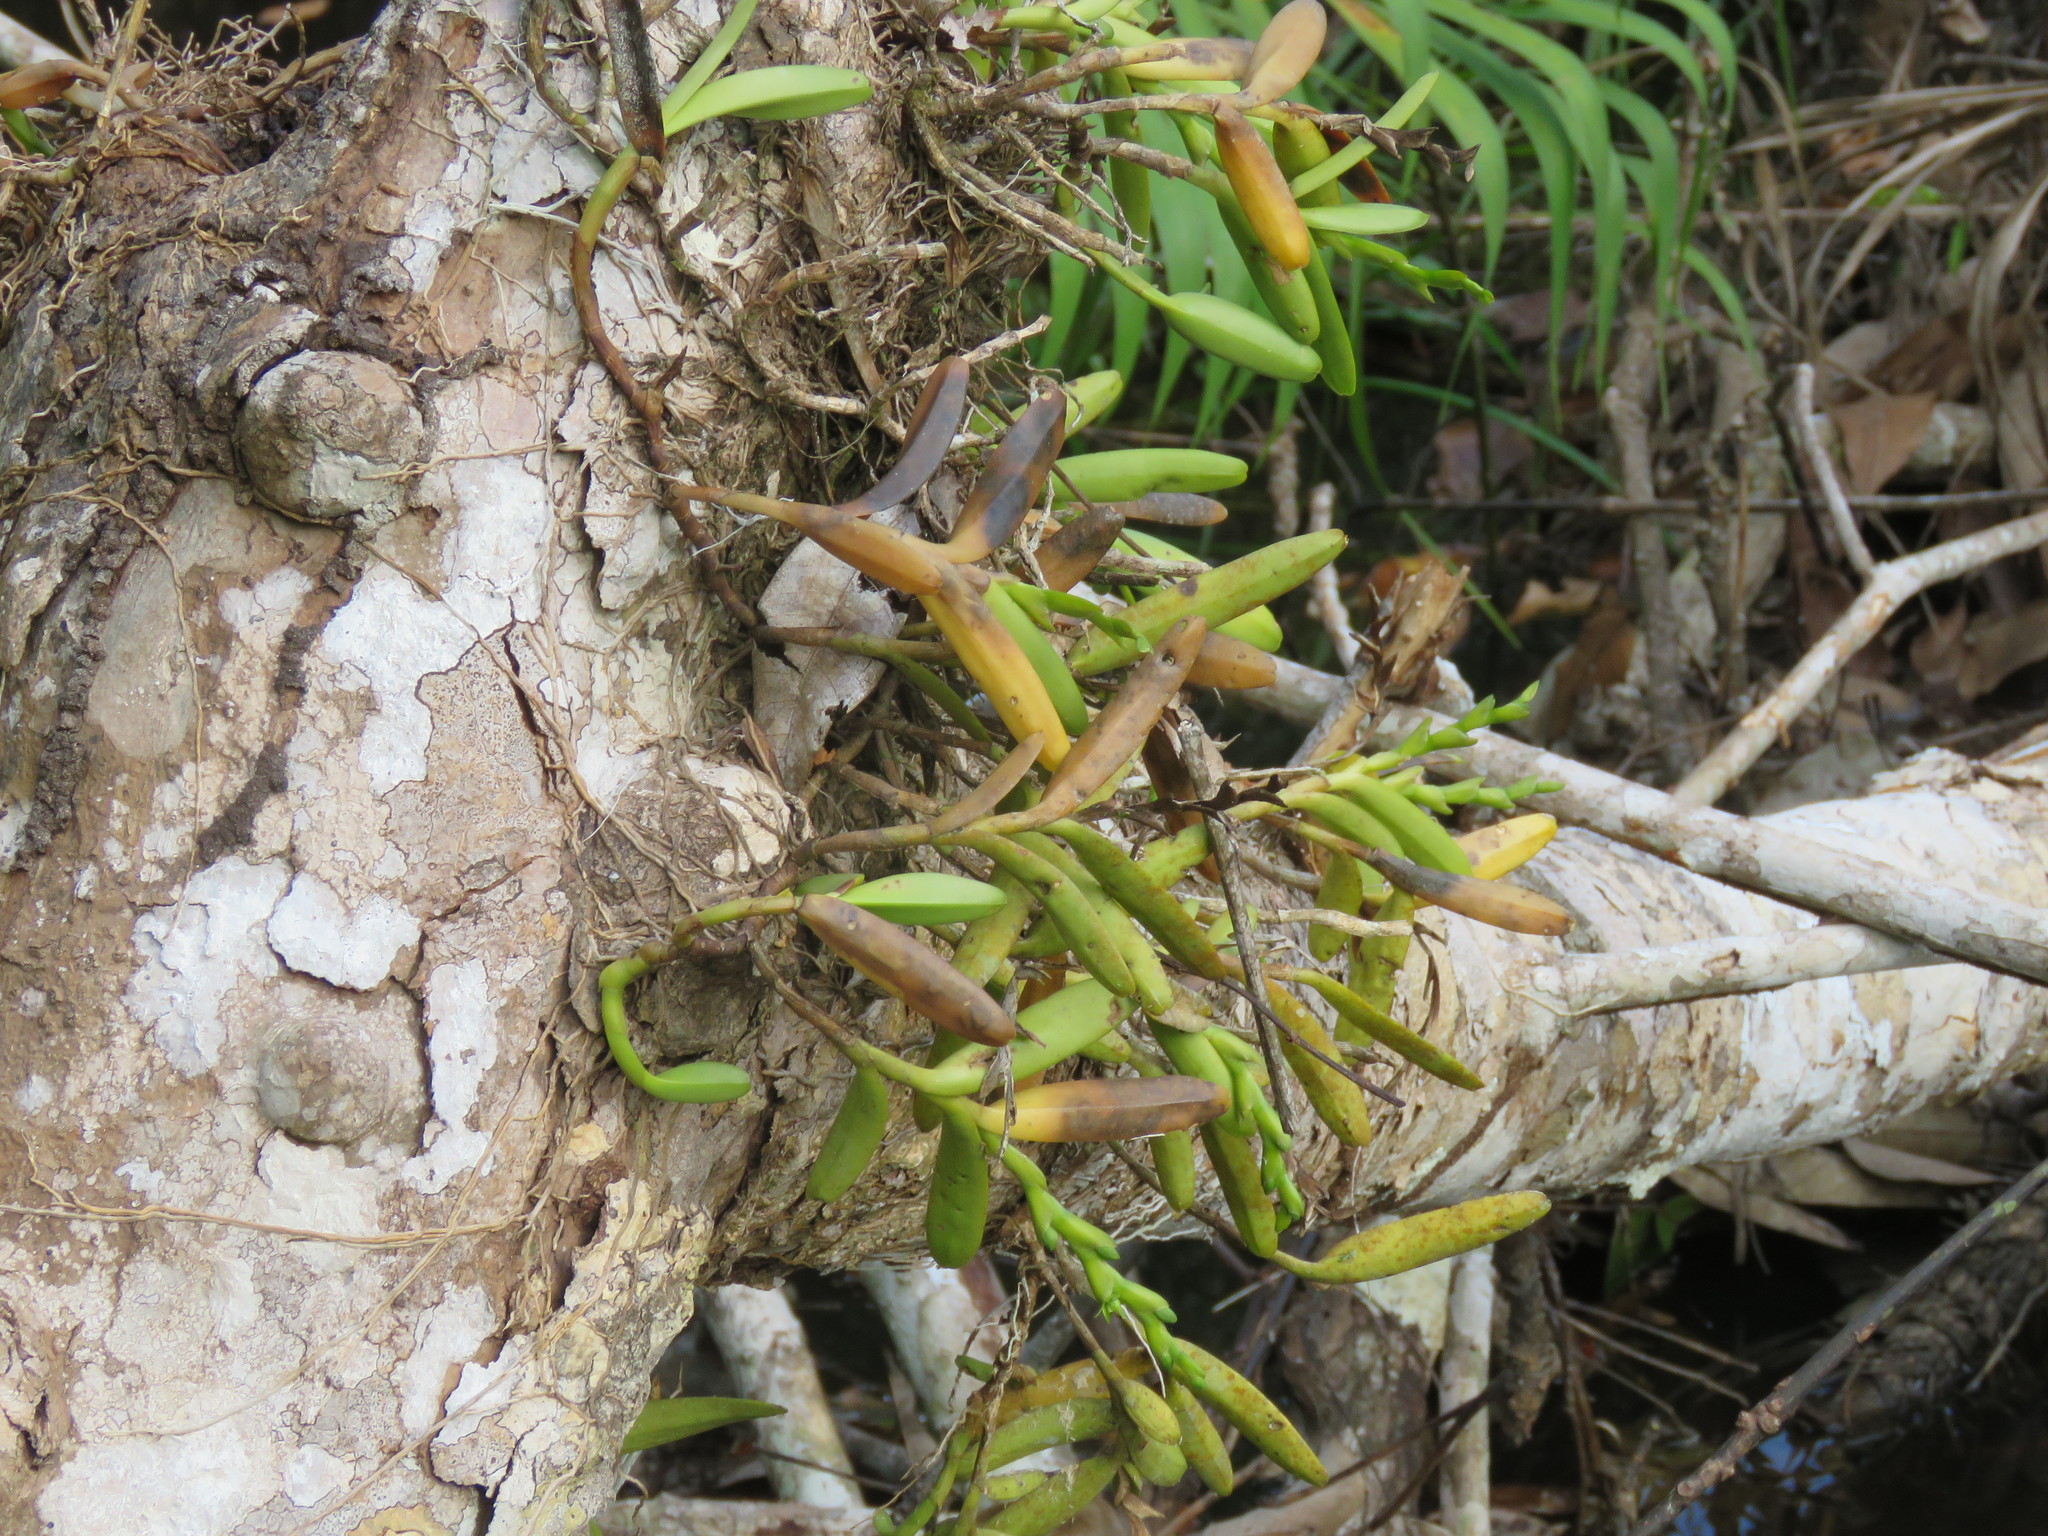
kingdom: Plantae
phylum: Tracheophyta
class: Liliopsida
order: Asparagales
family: Orchidaceae
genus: Epidendrum
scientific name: Epidendrum rigidum
